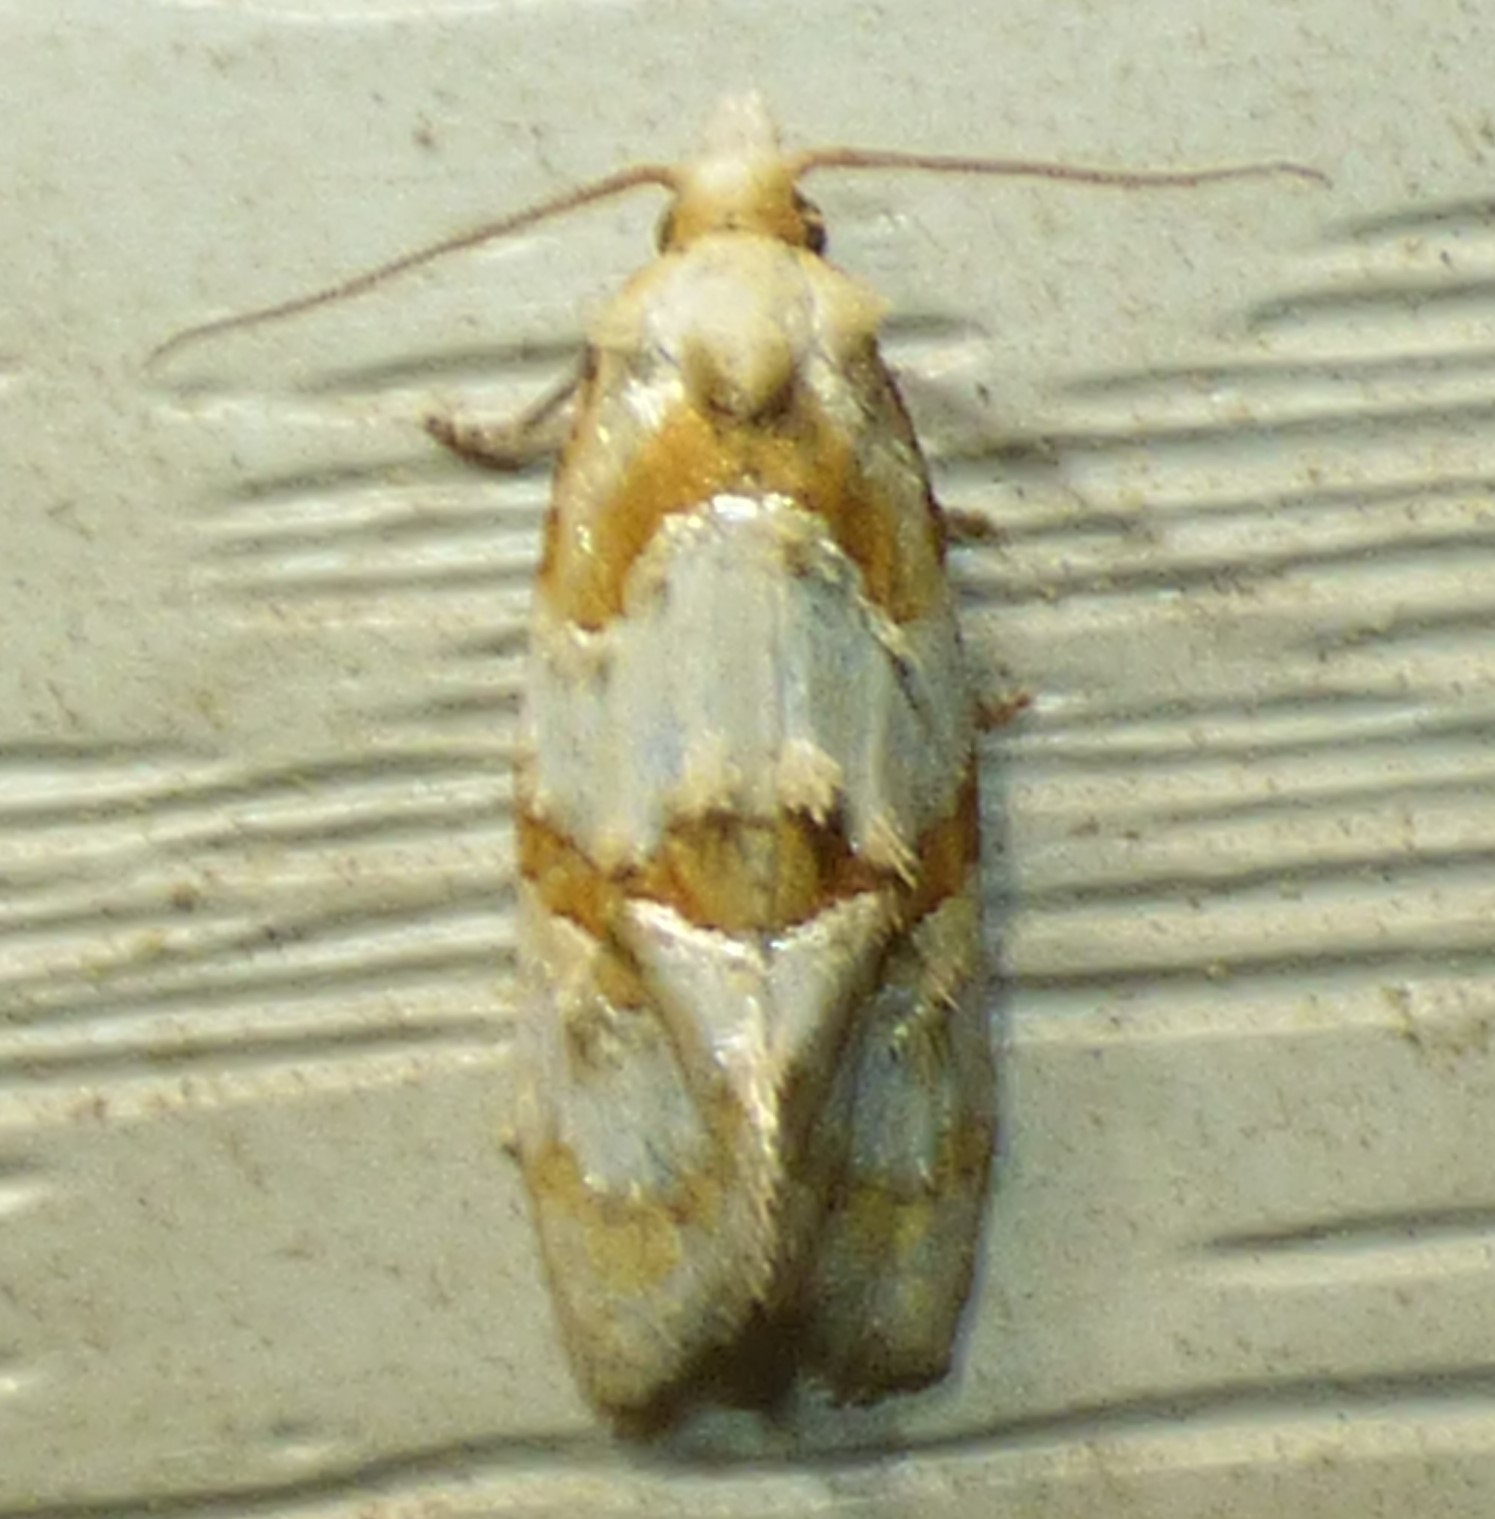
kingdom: Animalia
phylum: Arthropoda
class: Insecta
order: Lepidoptera
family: Tortricidae
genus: Cochylis
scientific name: Cochylis ringsi
